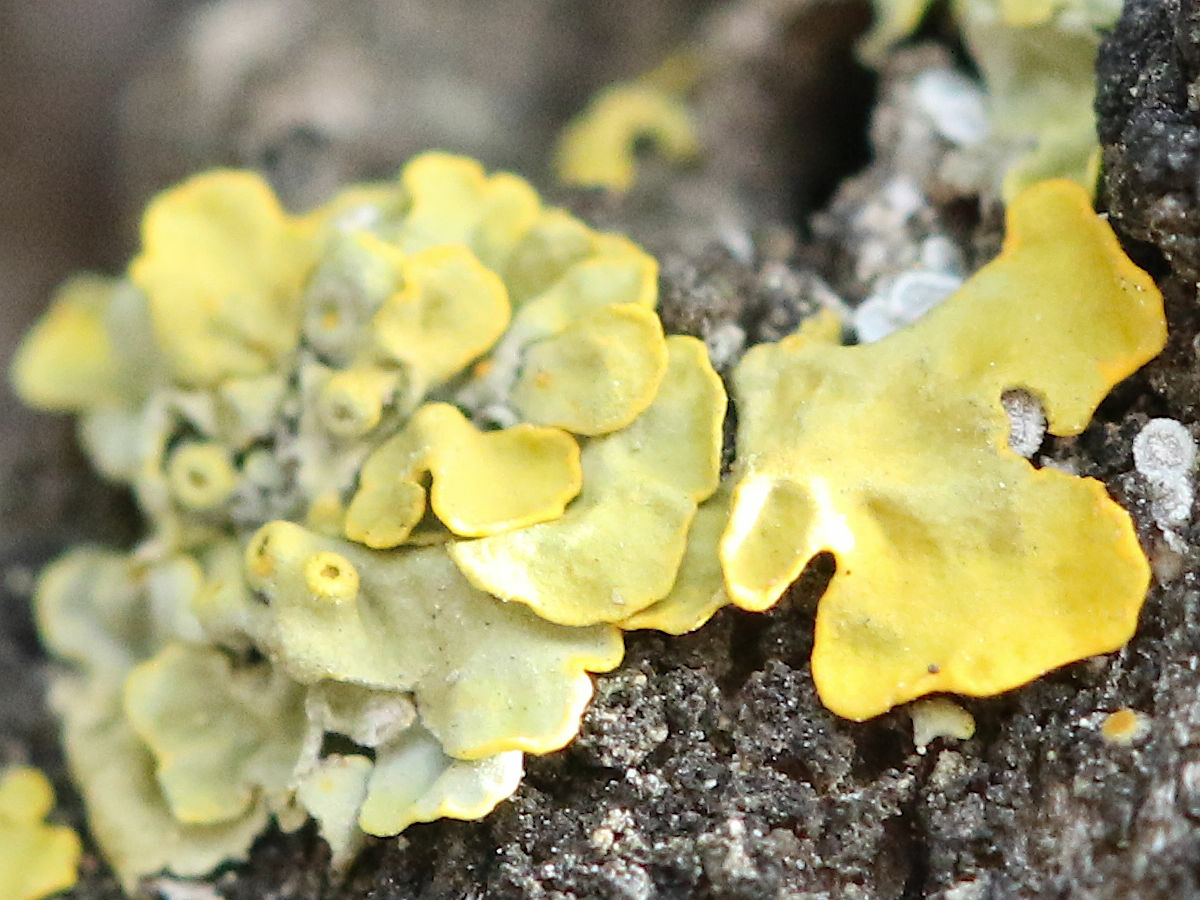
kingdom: Fungi
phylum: Ascomycota
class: Lecanoromycetes
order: Teloschistales
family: Teloschistaceae
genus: Xanthoria
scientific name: Xanthoria parietina
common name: Common orange lichen
